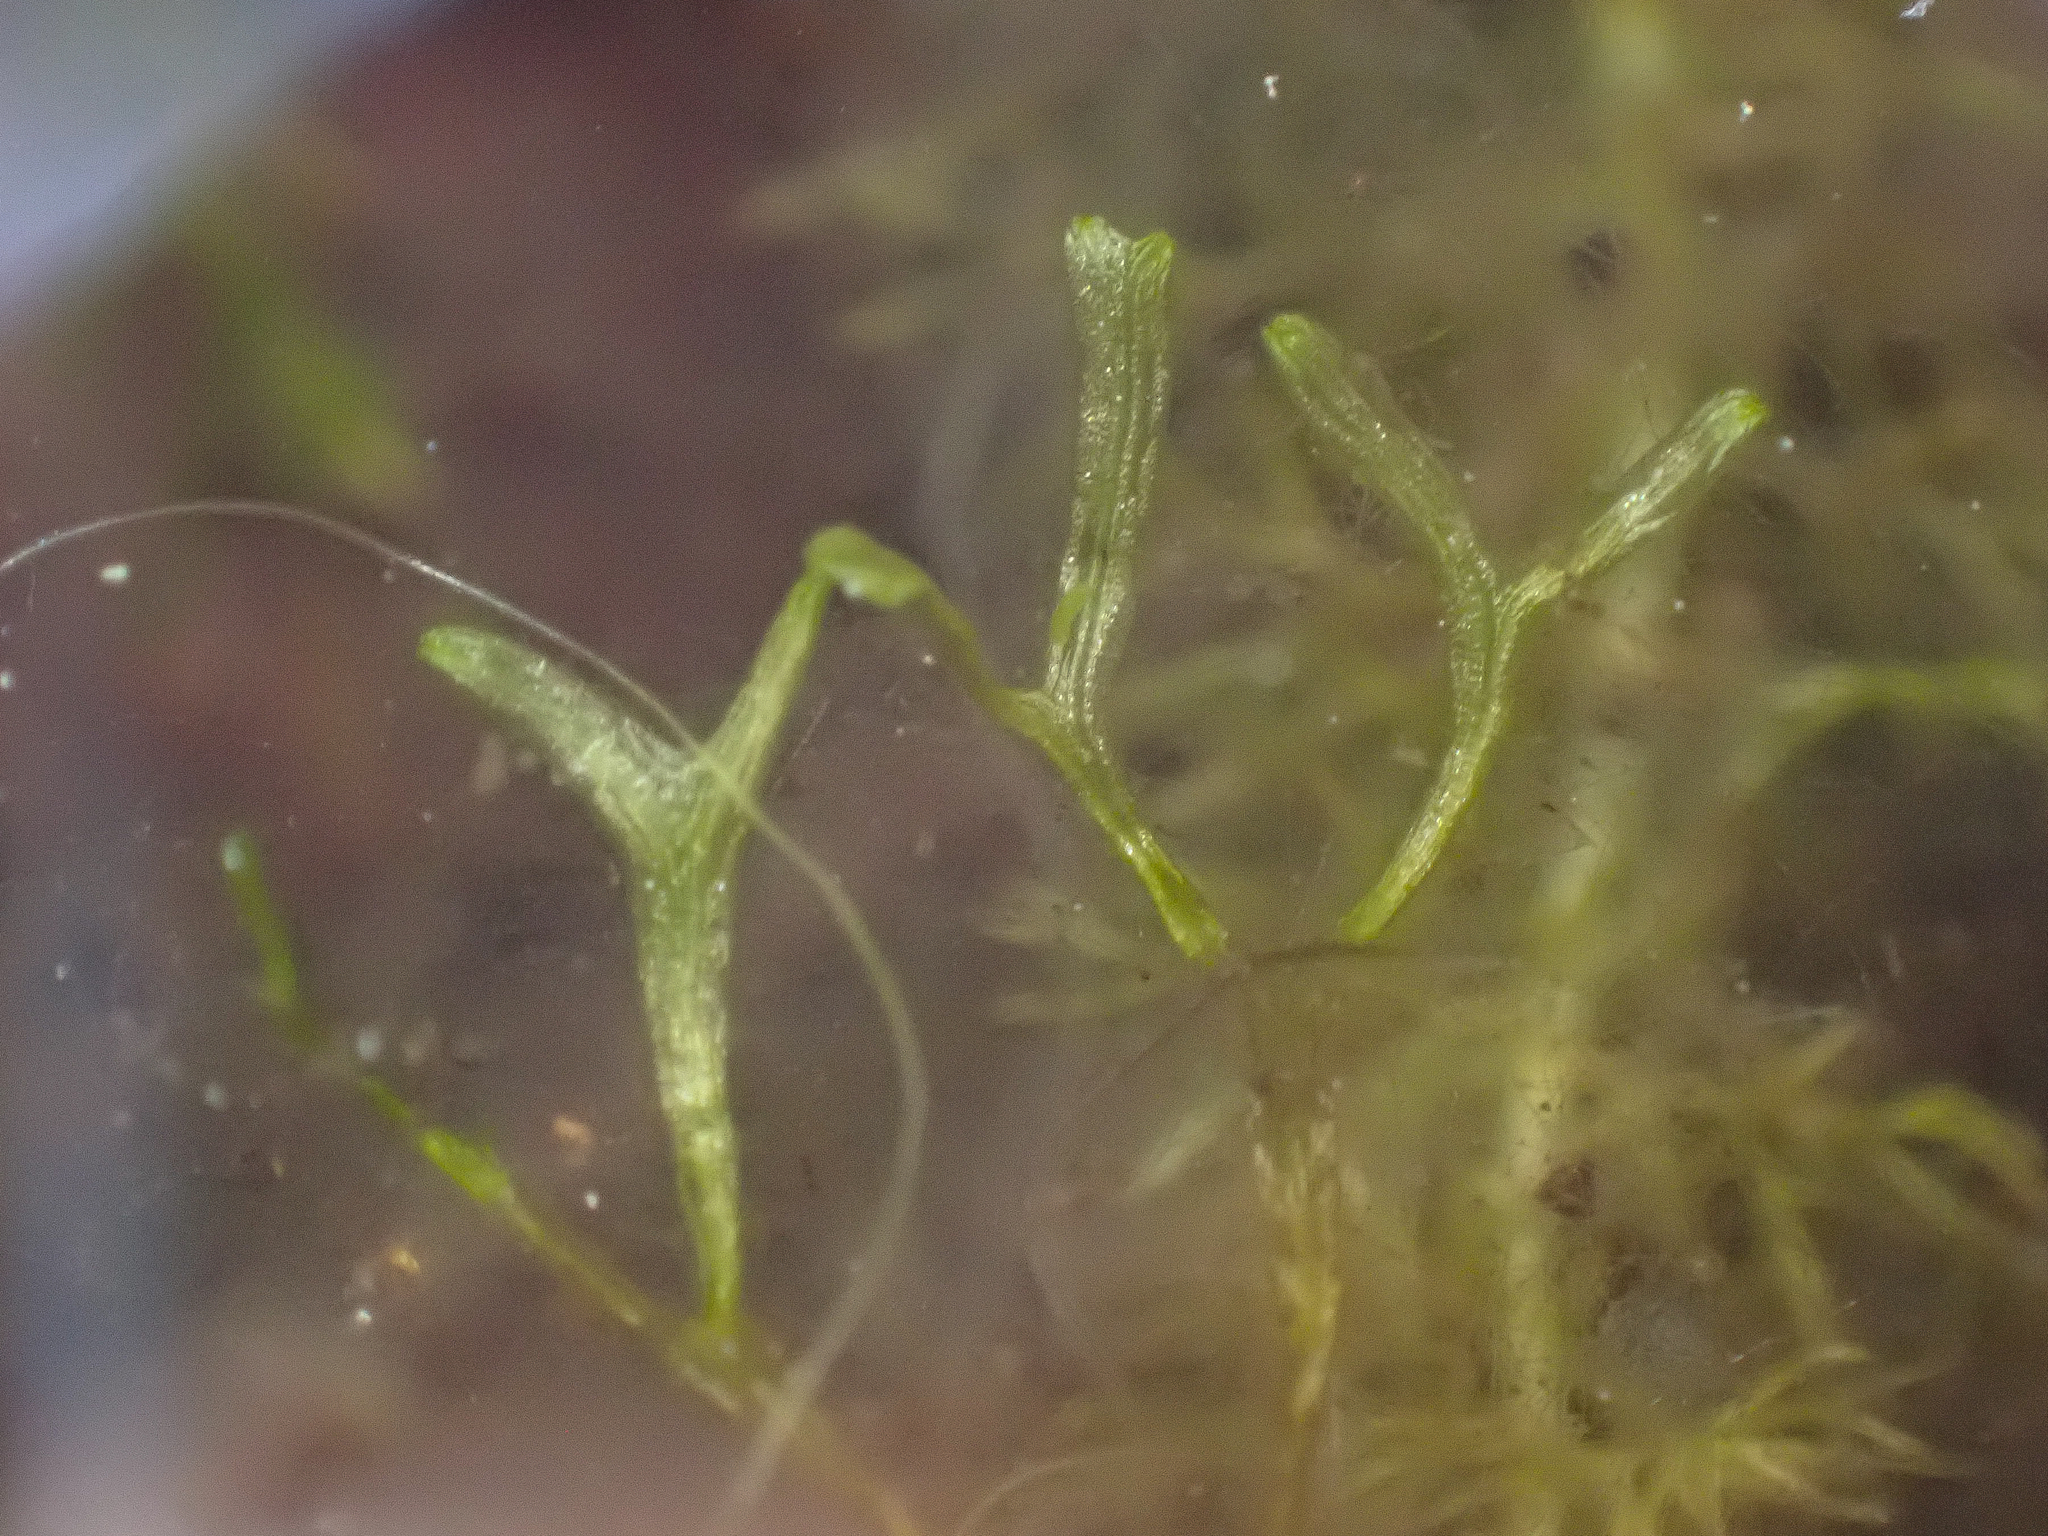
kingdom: Plantae
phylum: Marchantiophyta
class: Marchantiopsida
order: Marchantiales
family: Ricciaceae
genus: Riccia
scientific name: Riccia fluitans
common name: Floating crystalwort
